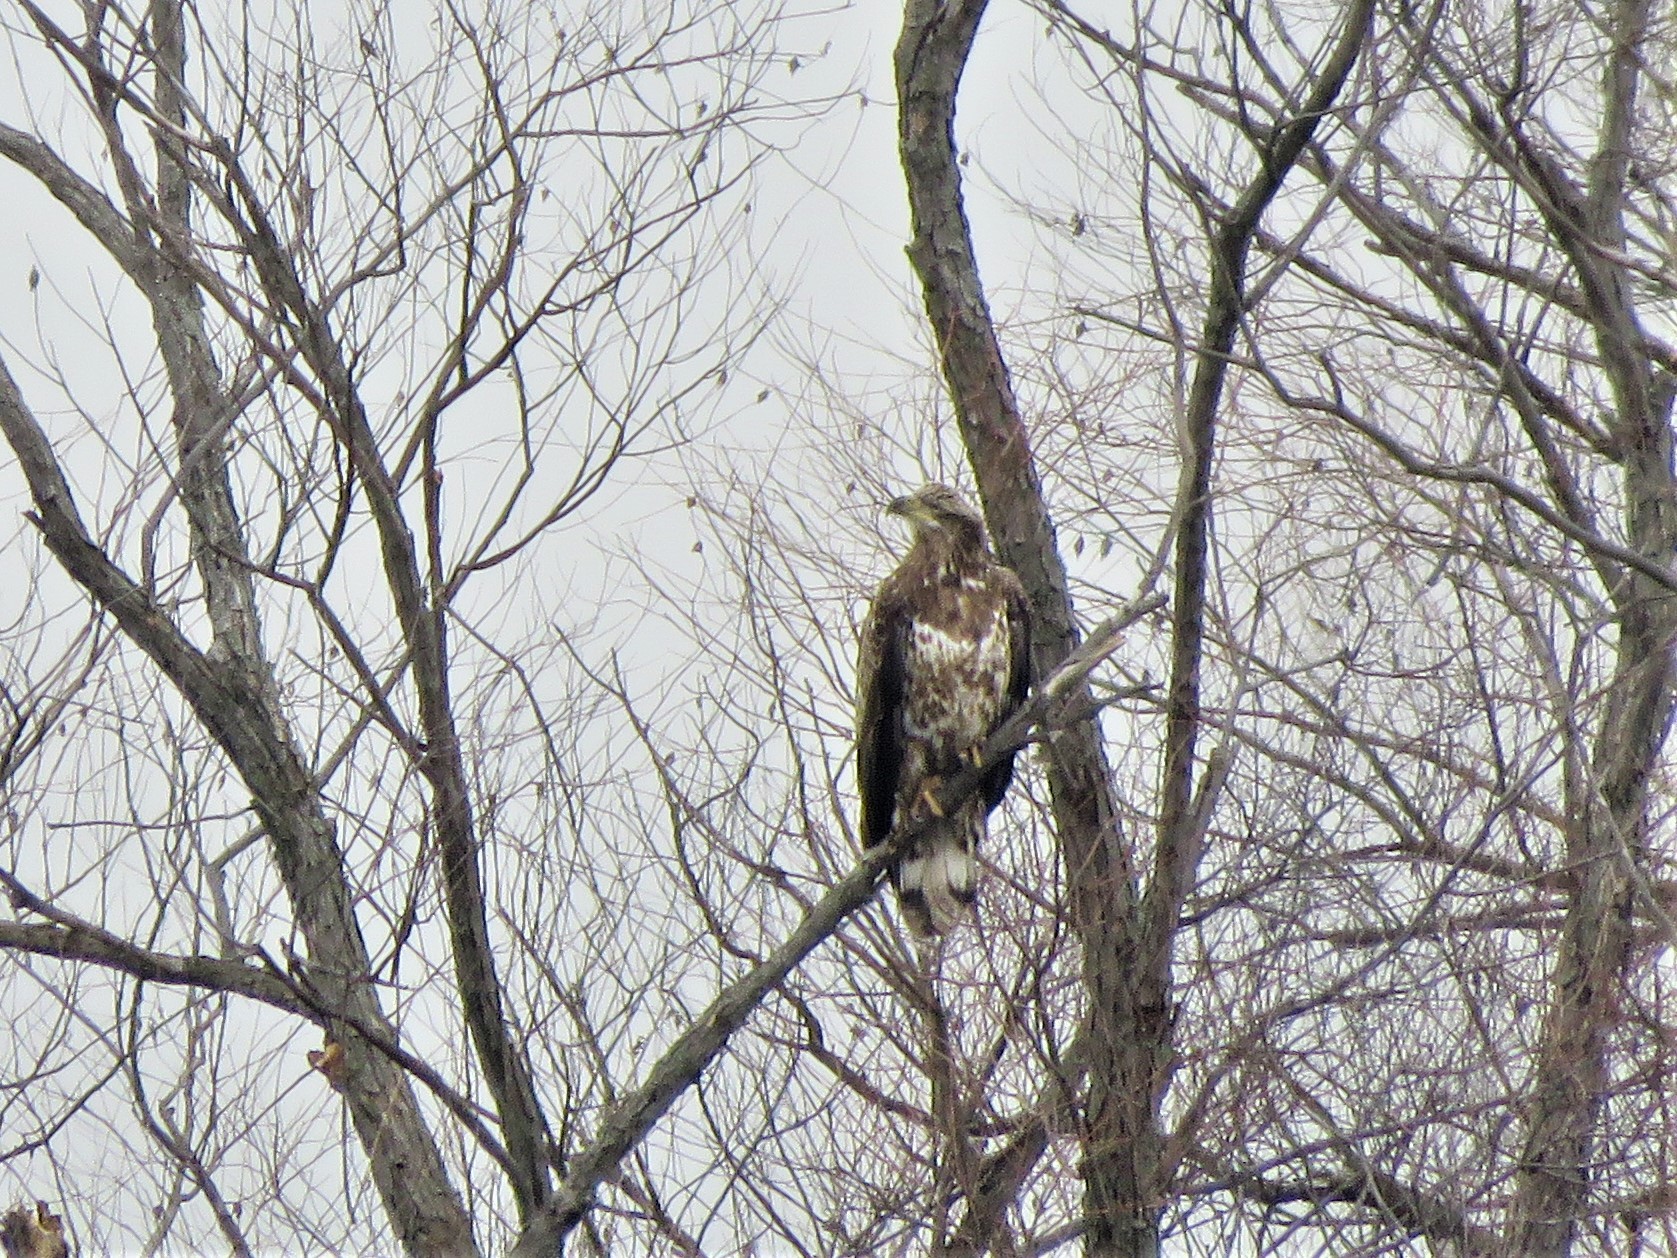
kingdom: Animalia
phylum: Chordata
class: Aves
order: Accipitriformes
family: Accipitridae
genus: Haliaeetus
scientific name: Haliaeetus leucocephalus
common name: Bald eagle
